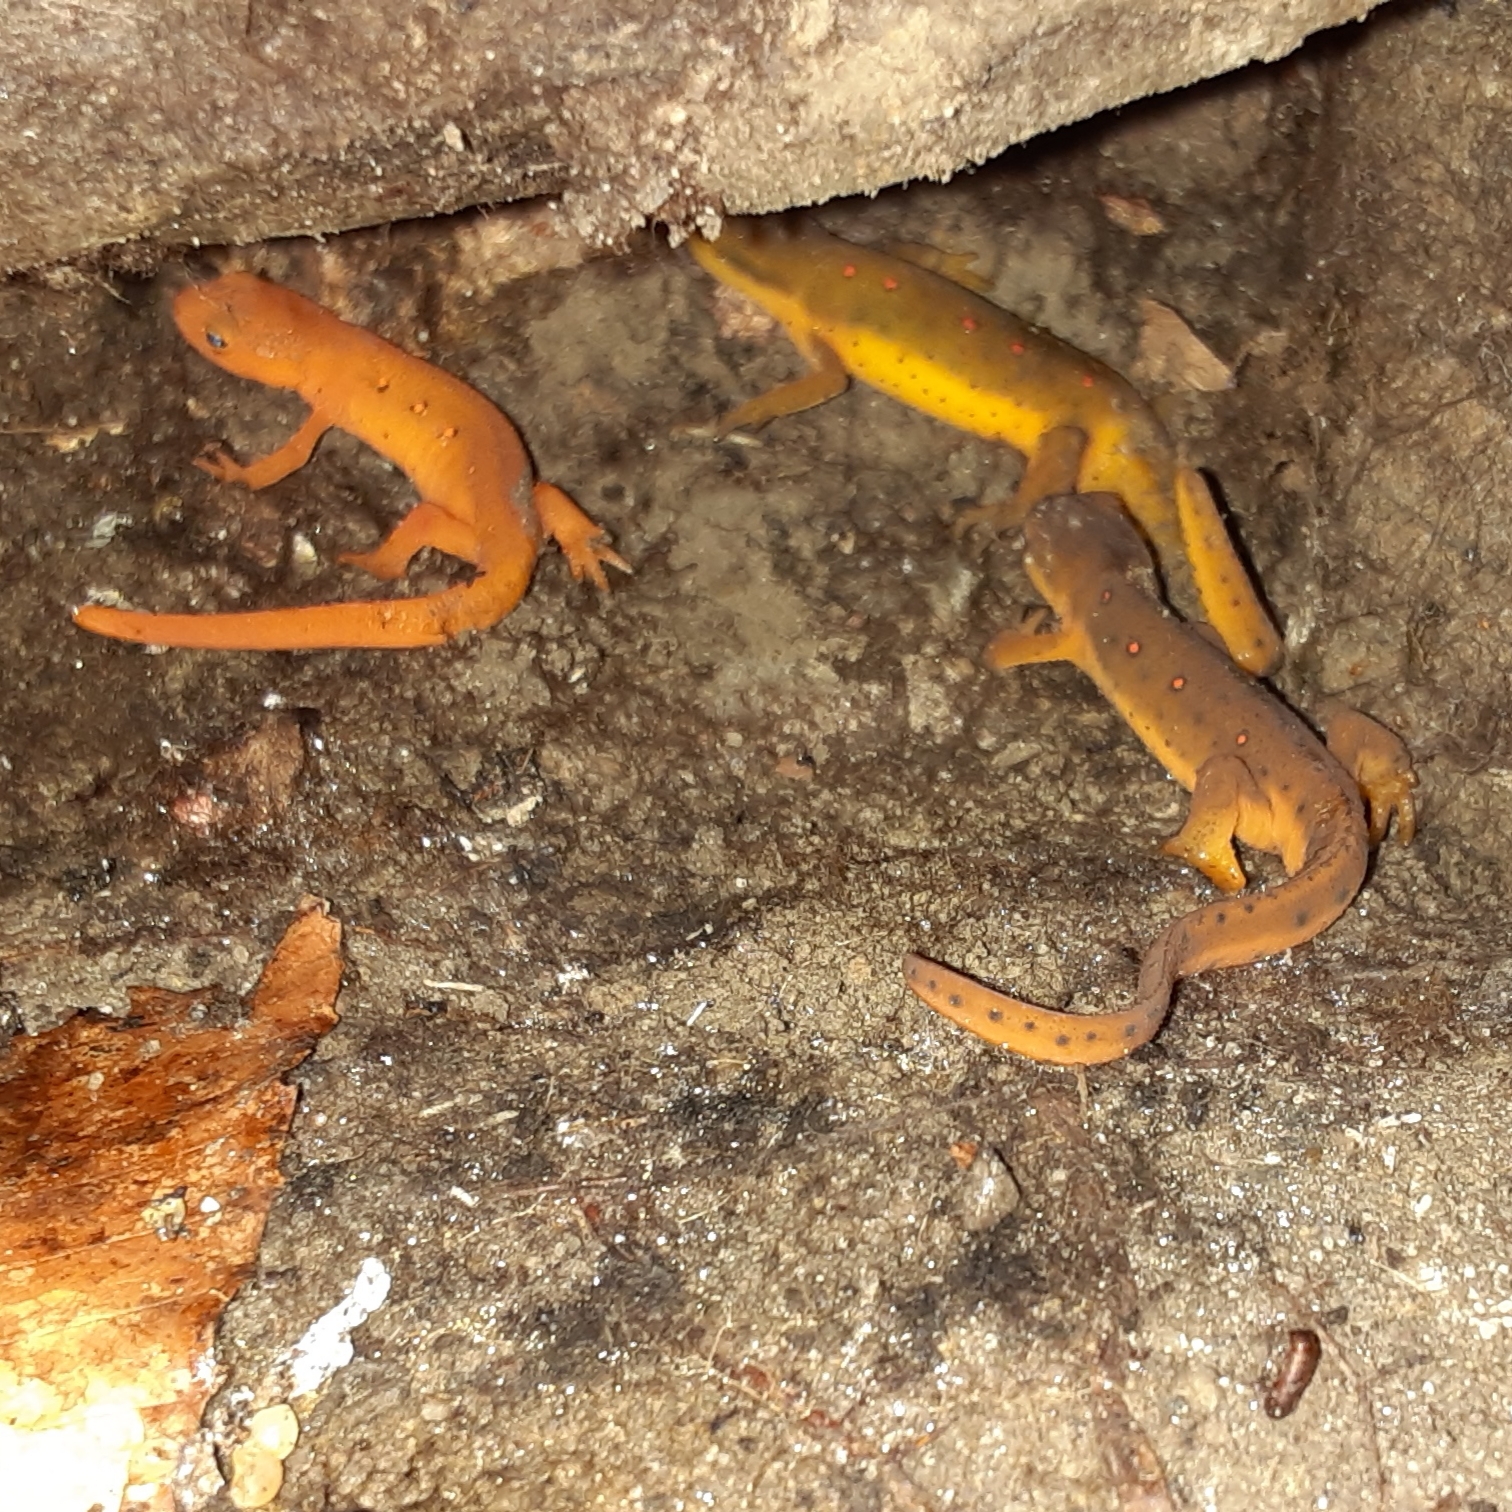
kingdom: Animalia
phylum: Chordata
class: Amphibia
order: Caudata
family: Salamandridae
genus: Notophthalmus
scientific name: Notophthalmus viridescens
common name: Eastern newt
